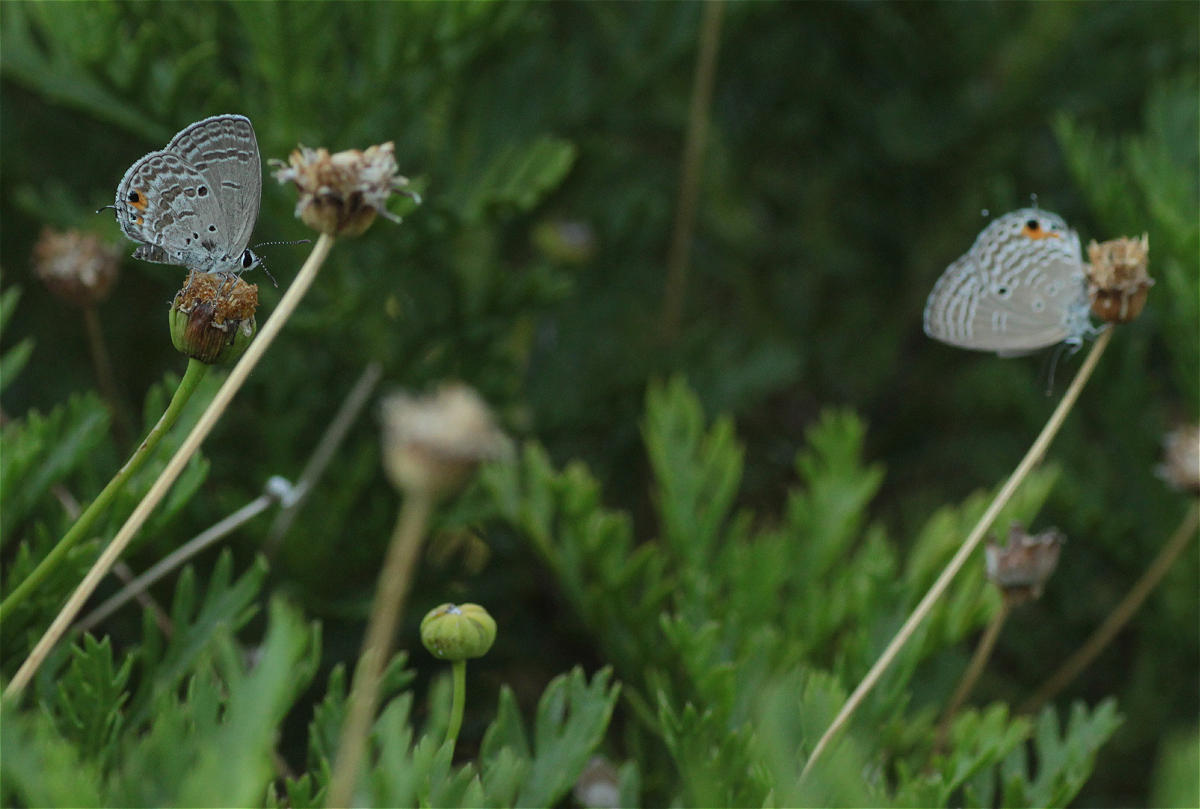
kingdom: Animalia
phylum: Arthropoda
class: Insecta
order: Lepidoptera
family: Lycaenidae
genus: Luthrodes
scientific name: Luthrodes pandava
